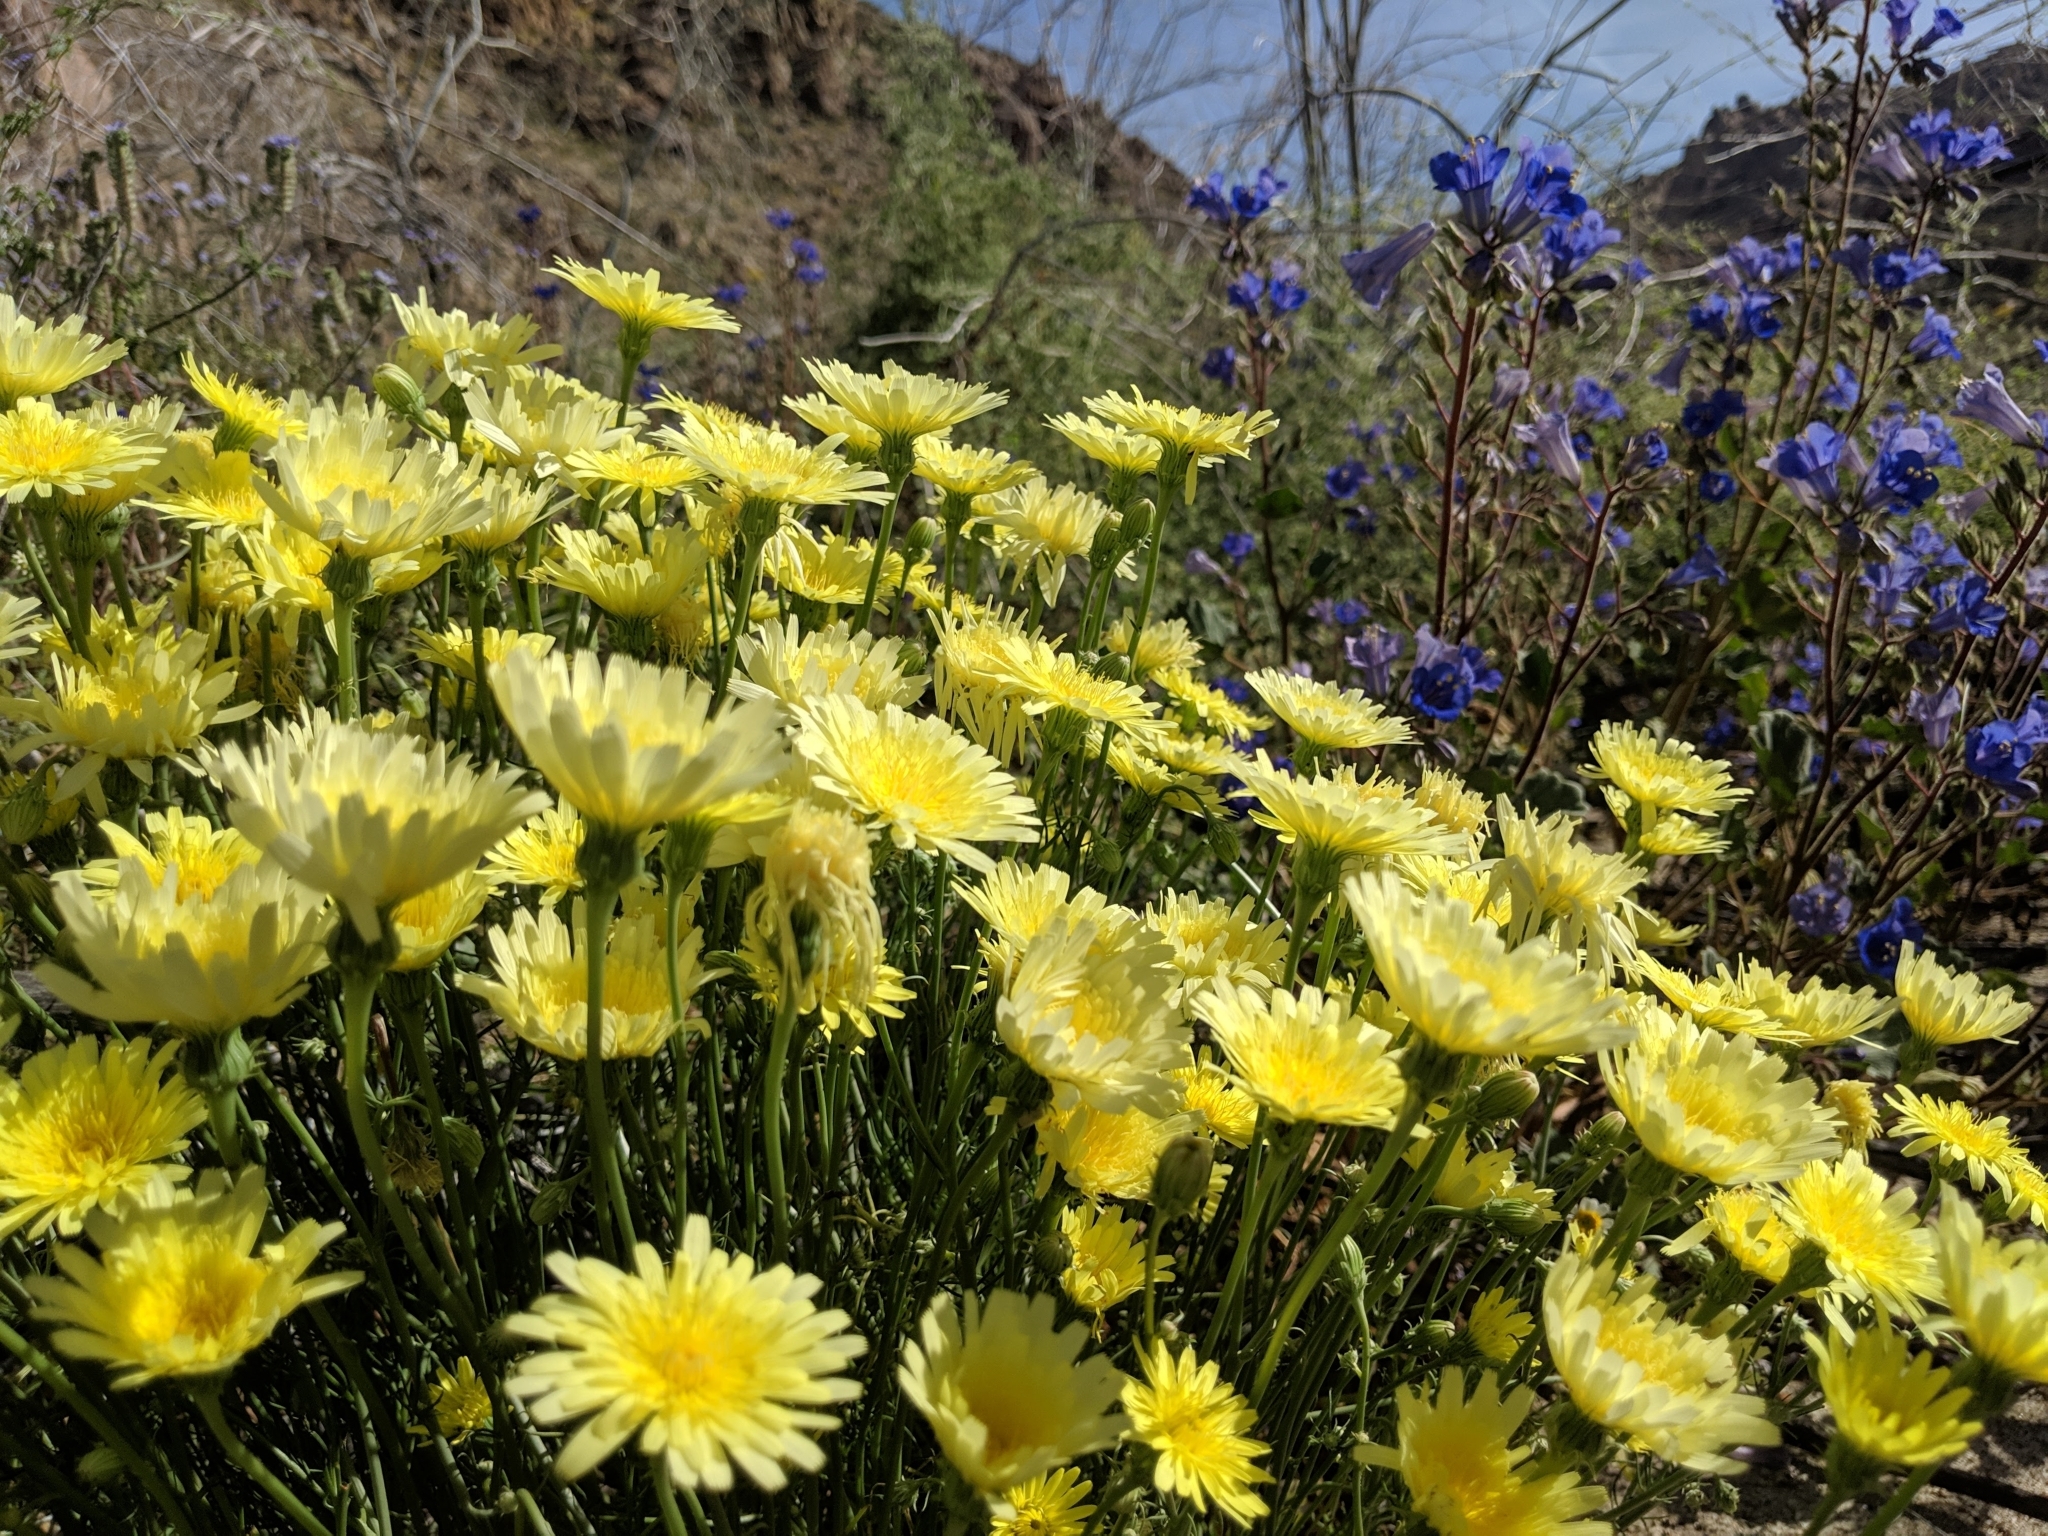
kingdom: Plantae
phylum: Tracheophyta
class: Magnoliopsida
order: Asterales
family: Asteraceae
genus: Malacothrix
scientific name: Malacothrix glabrata
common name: Smooth desert-dandelion
